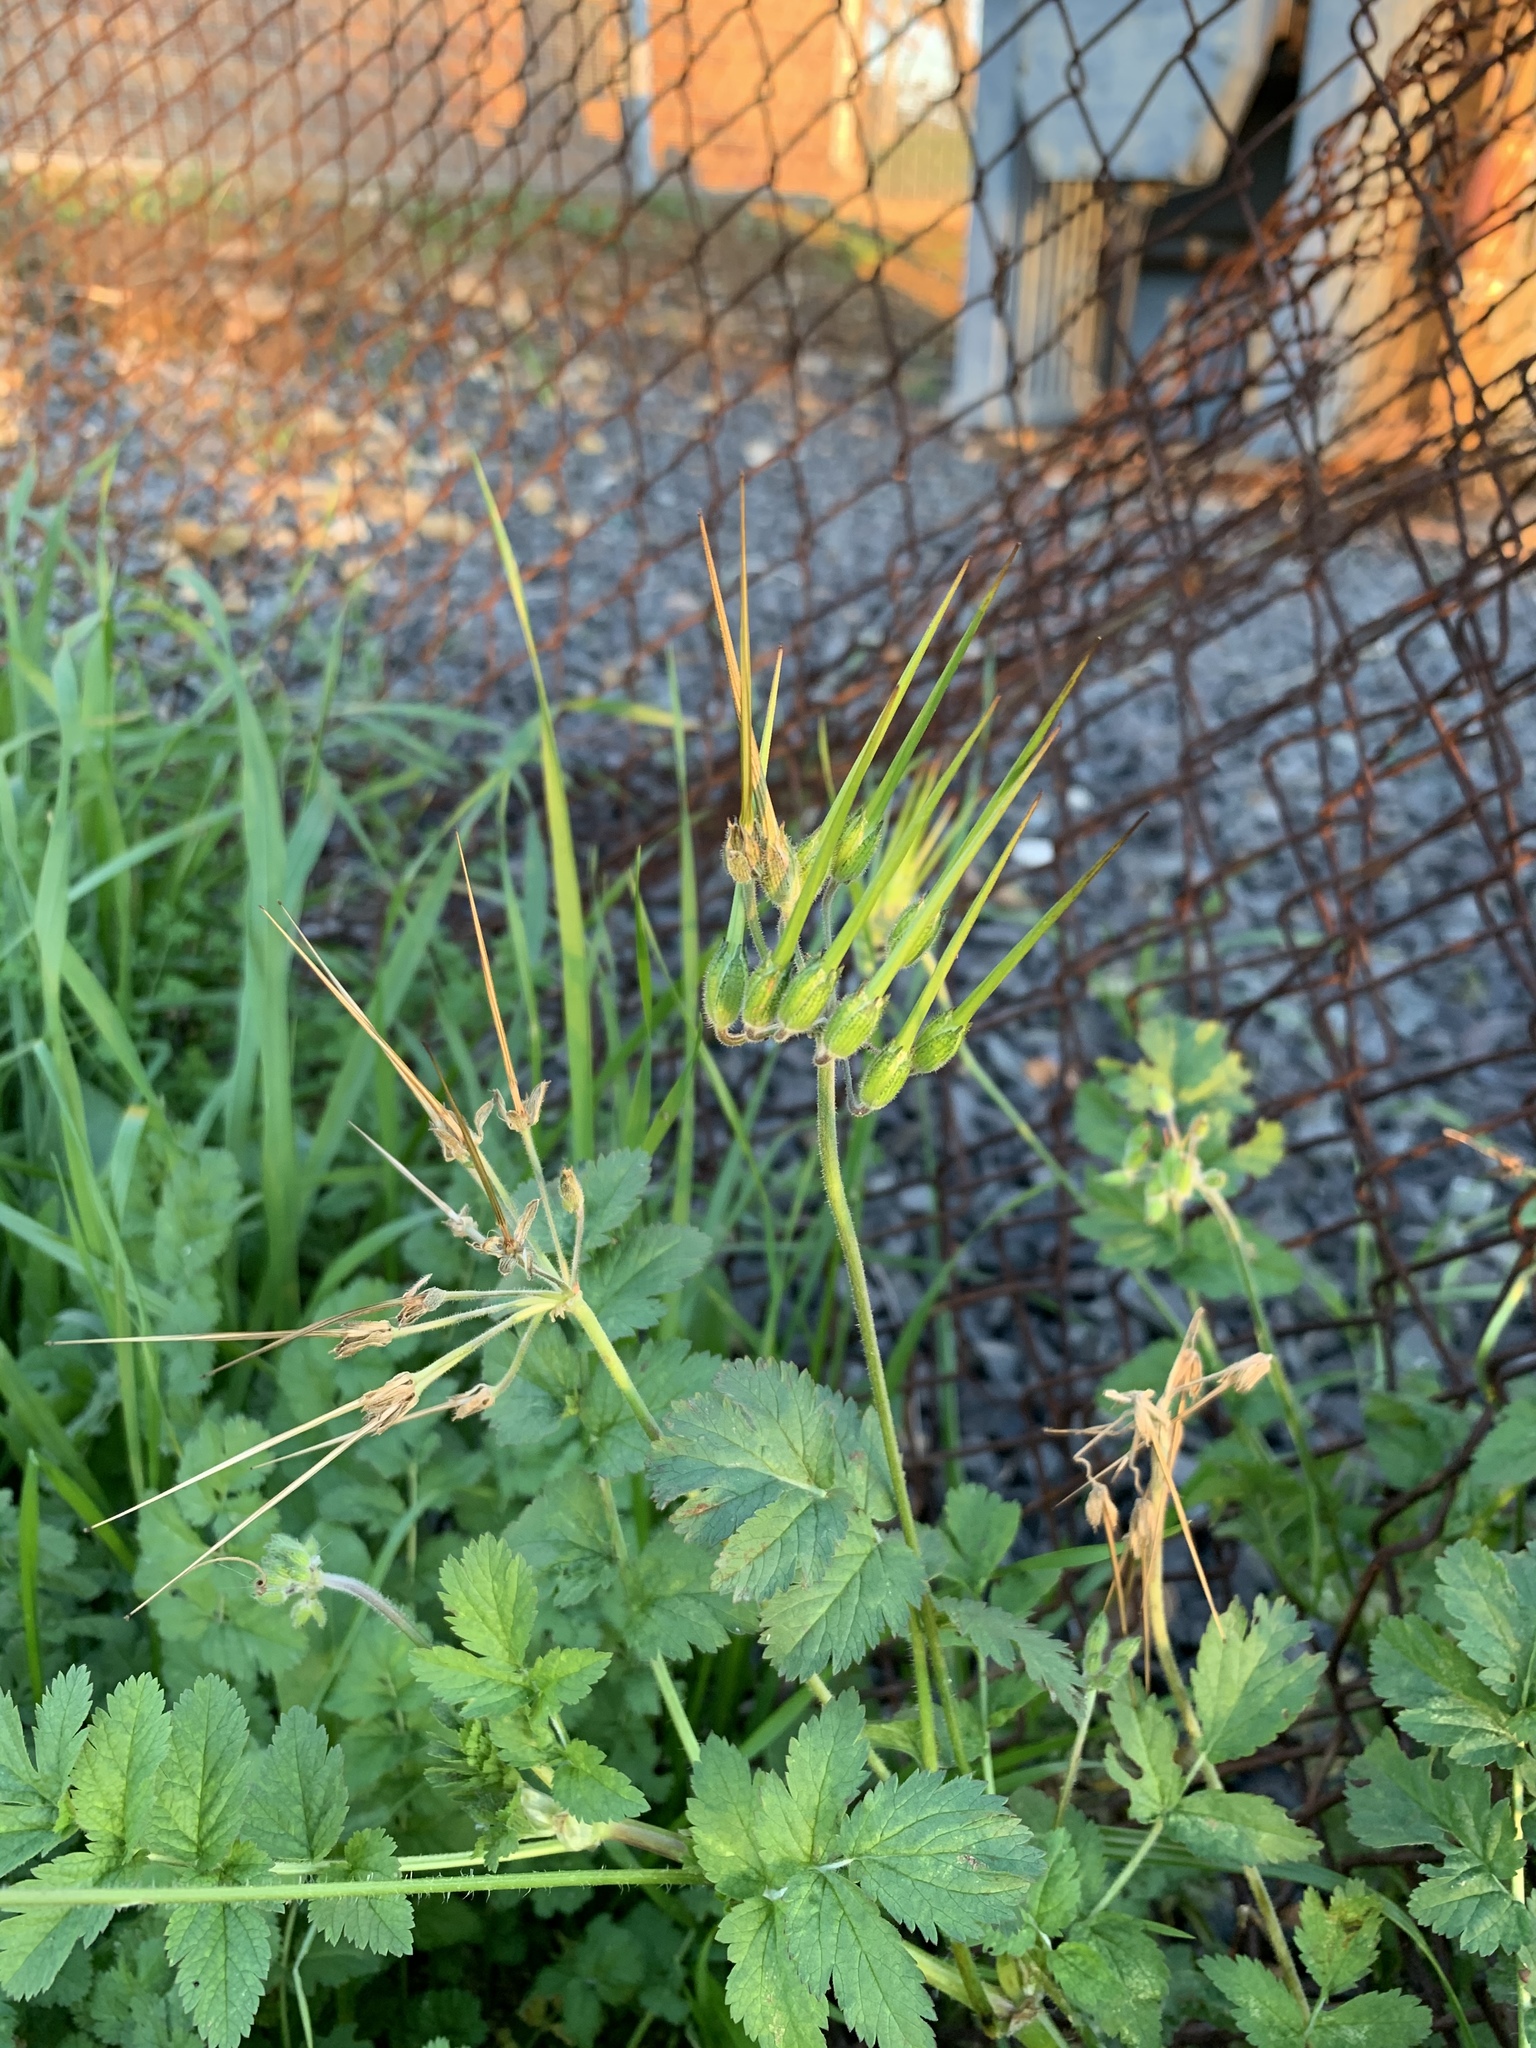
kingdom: Plantae
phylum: Tracheophyta
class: Magnoliopsida
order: Geraniales
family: Geraniaceae
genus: Erodium
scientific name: Erodium moschatum
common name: Musk stork's-bill
